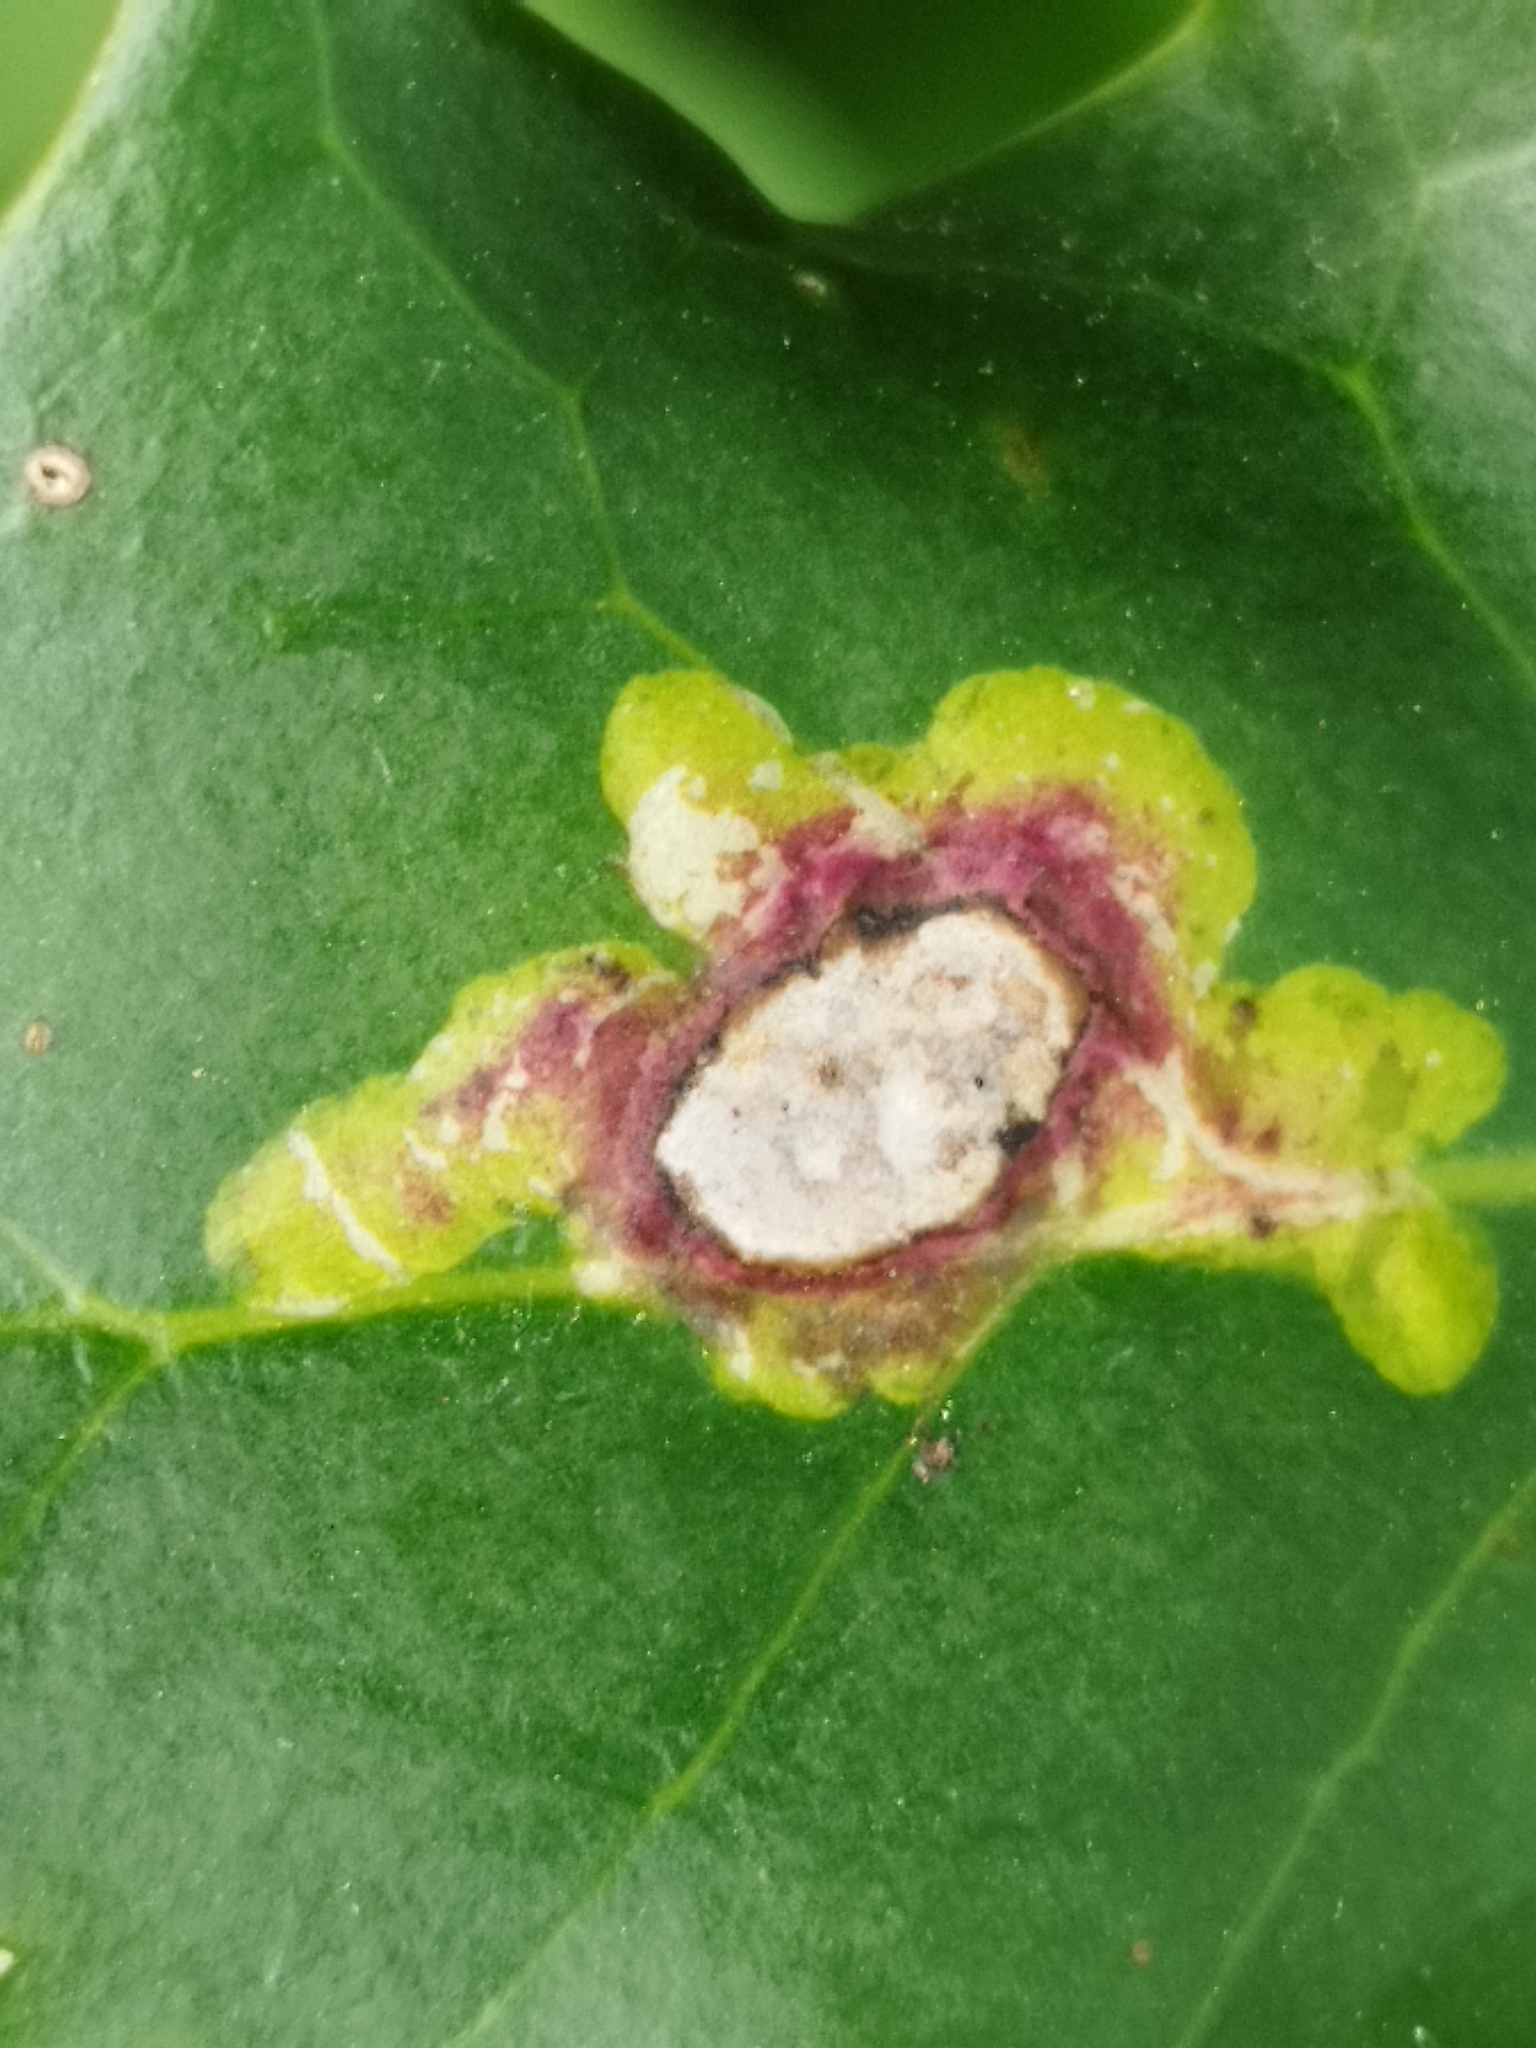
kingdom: Animalia
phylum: Arthropoda
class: Insecta
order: Diptera
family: Agromyzidae
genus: Phytomyza
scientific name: Phytomyza ilicis
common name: Holly leafminer
